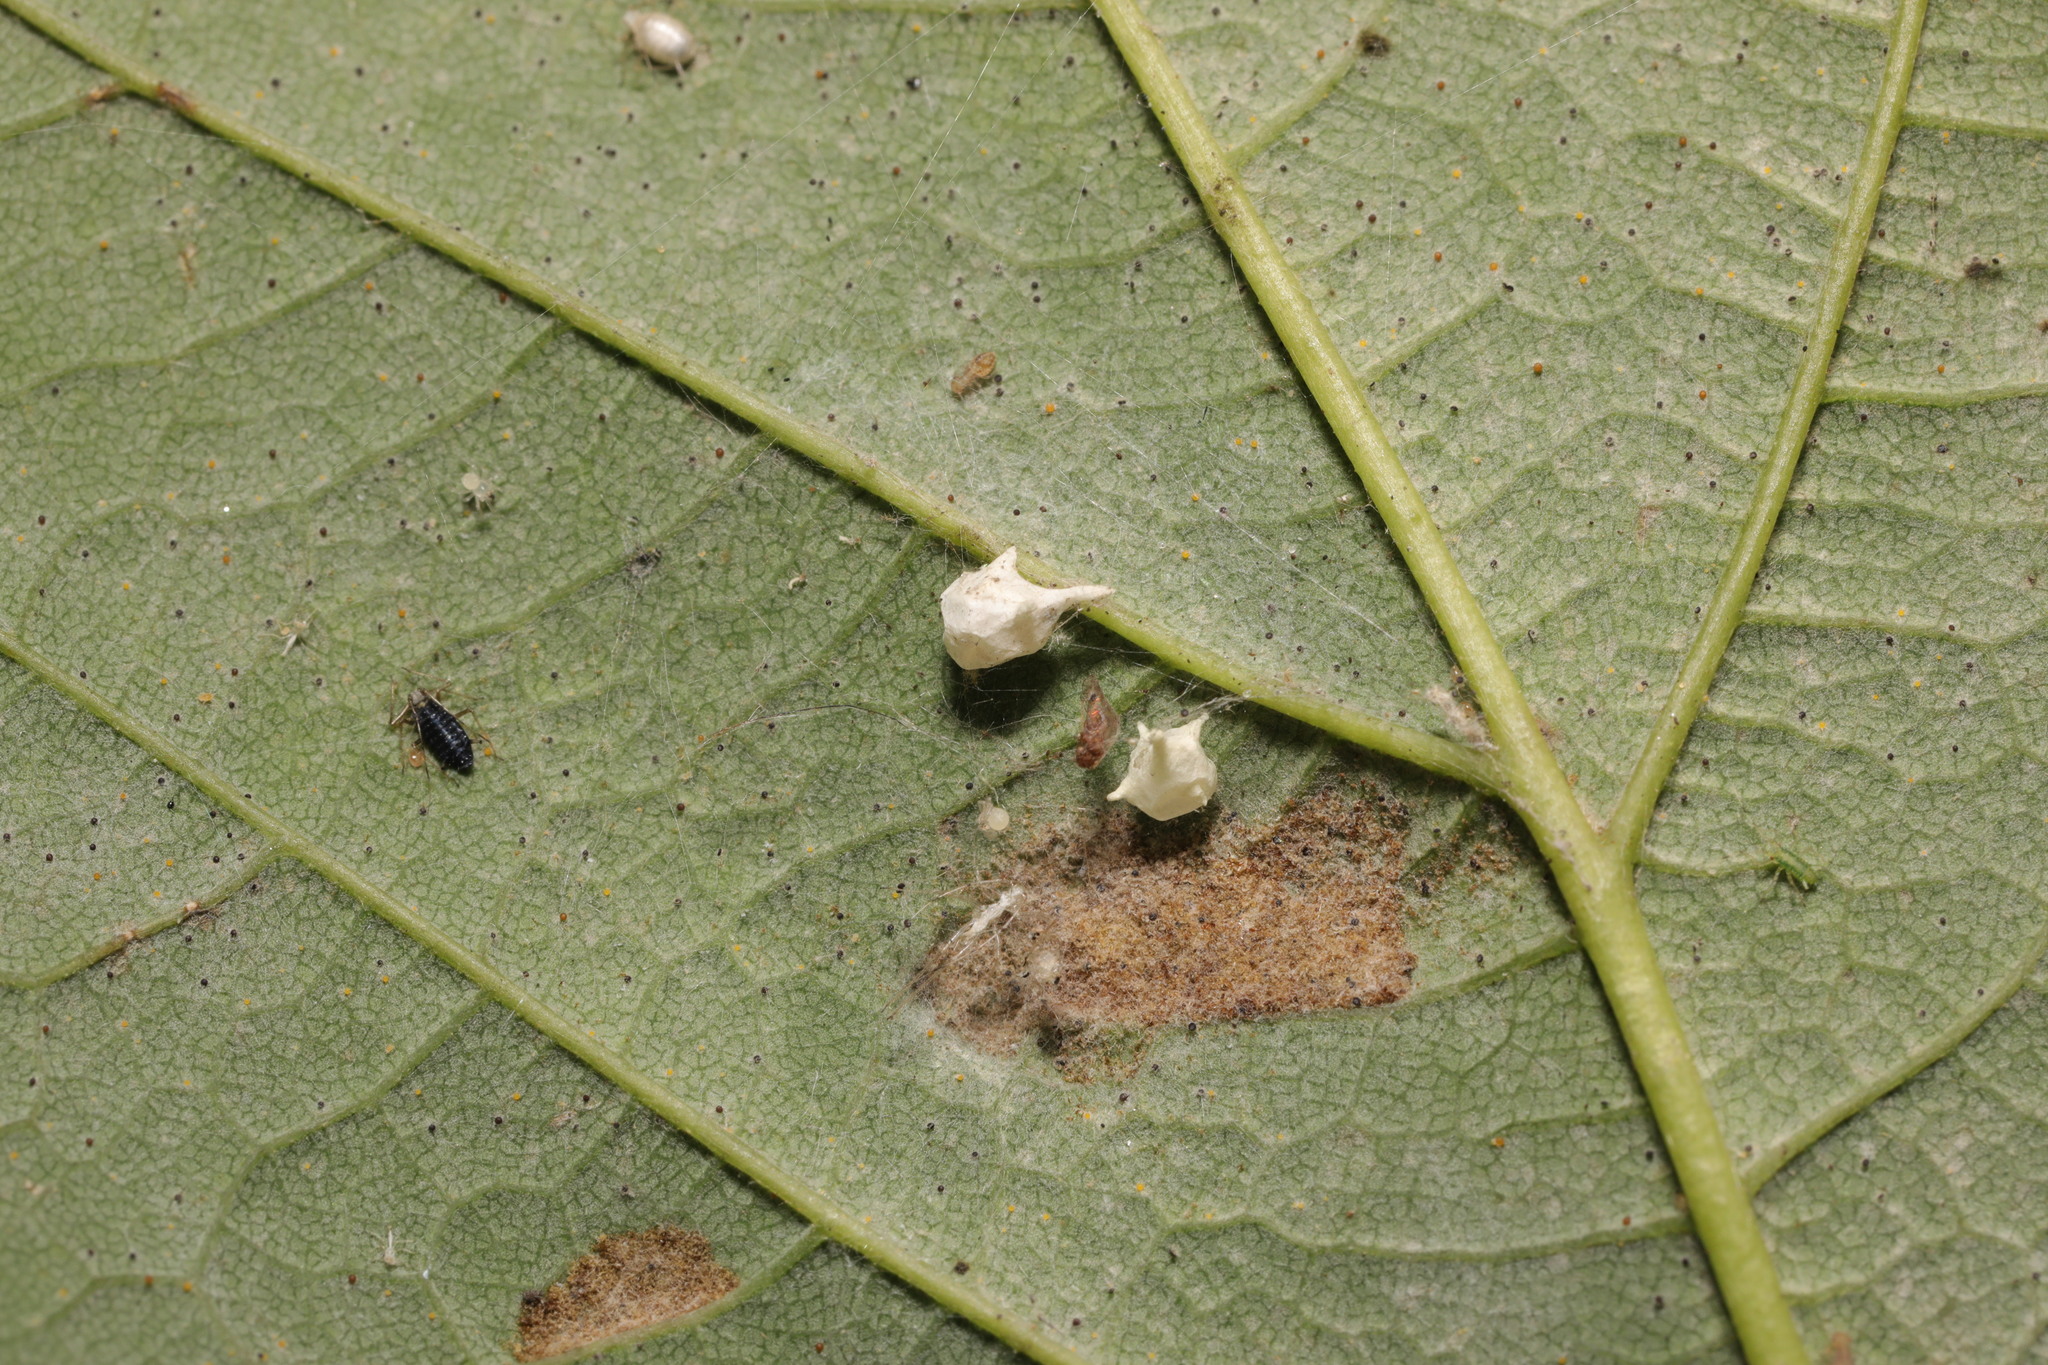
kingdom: Animalia
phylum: Arthropoda
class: Arachnida
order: Araneae
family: Theridiidae
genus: Paidiscura
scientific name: Paidiscura pallens
